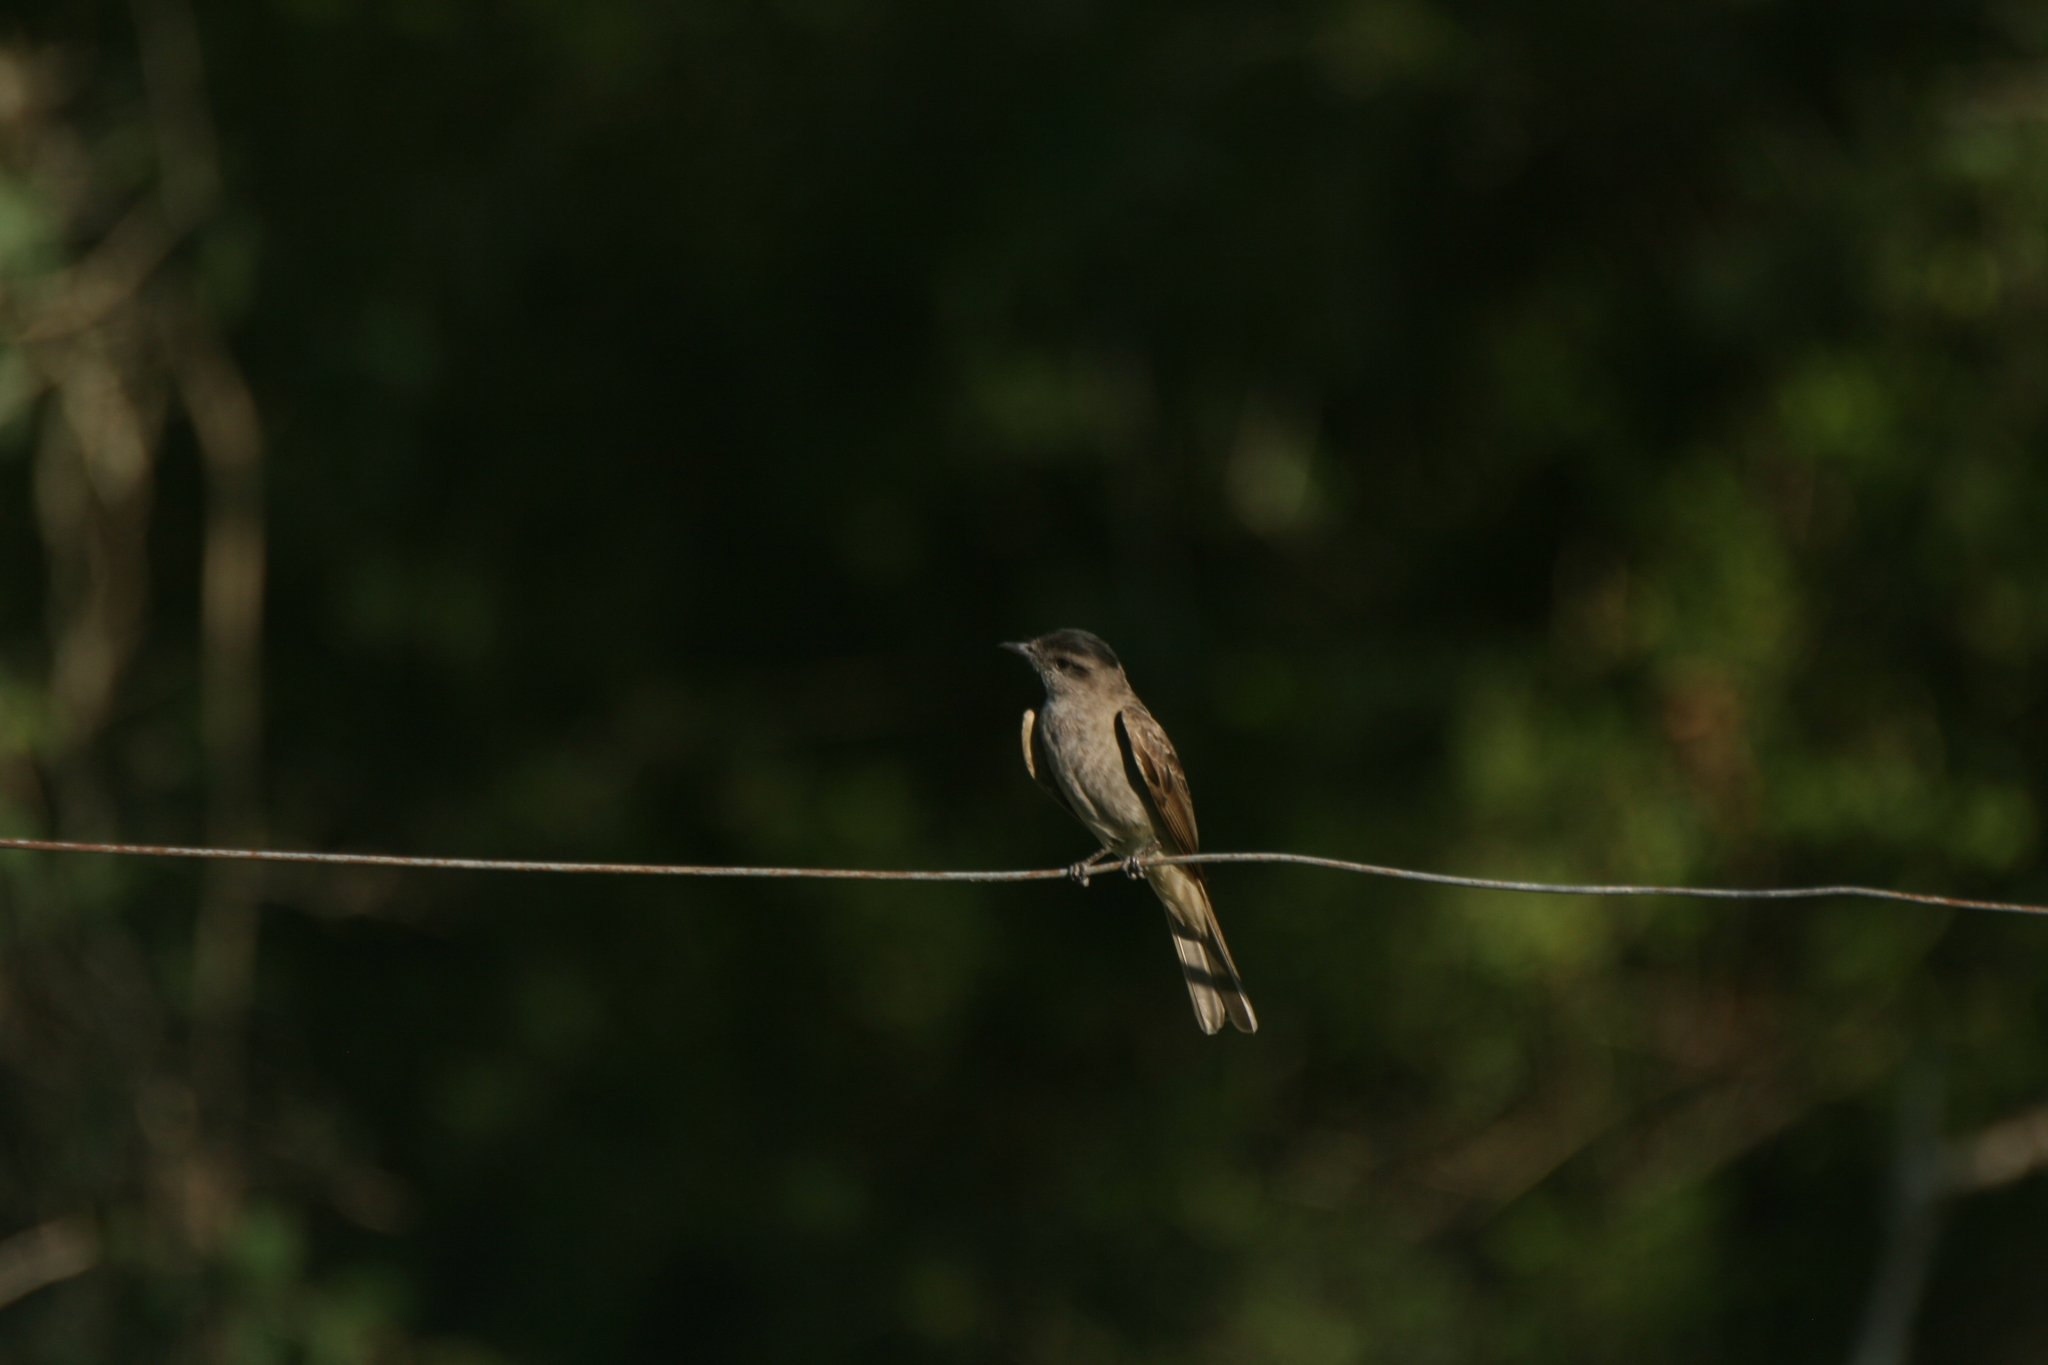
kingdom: Animalia
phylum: Chordata
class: Aves
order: Passeriformes
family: Tyrannidae
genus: Empidonomus
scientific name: Empidonomus aurantioatrocristatus
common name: Crowned slaty flycatcher
